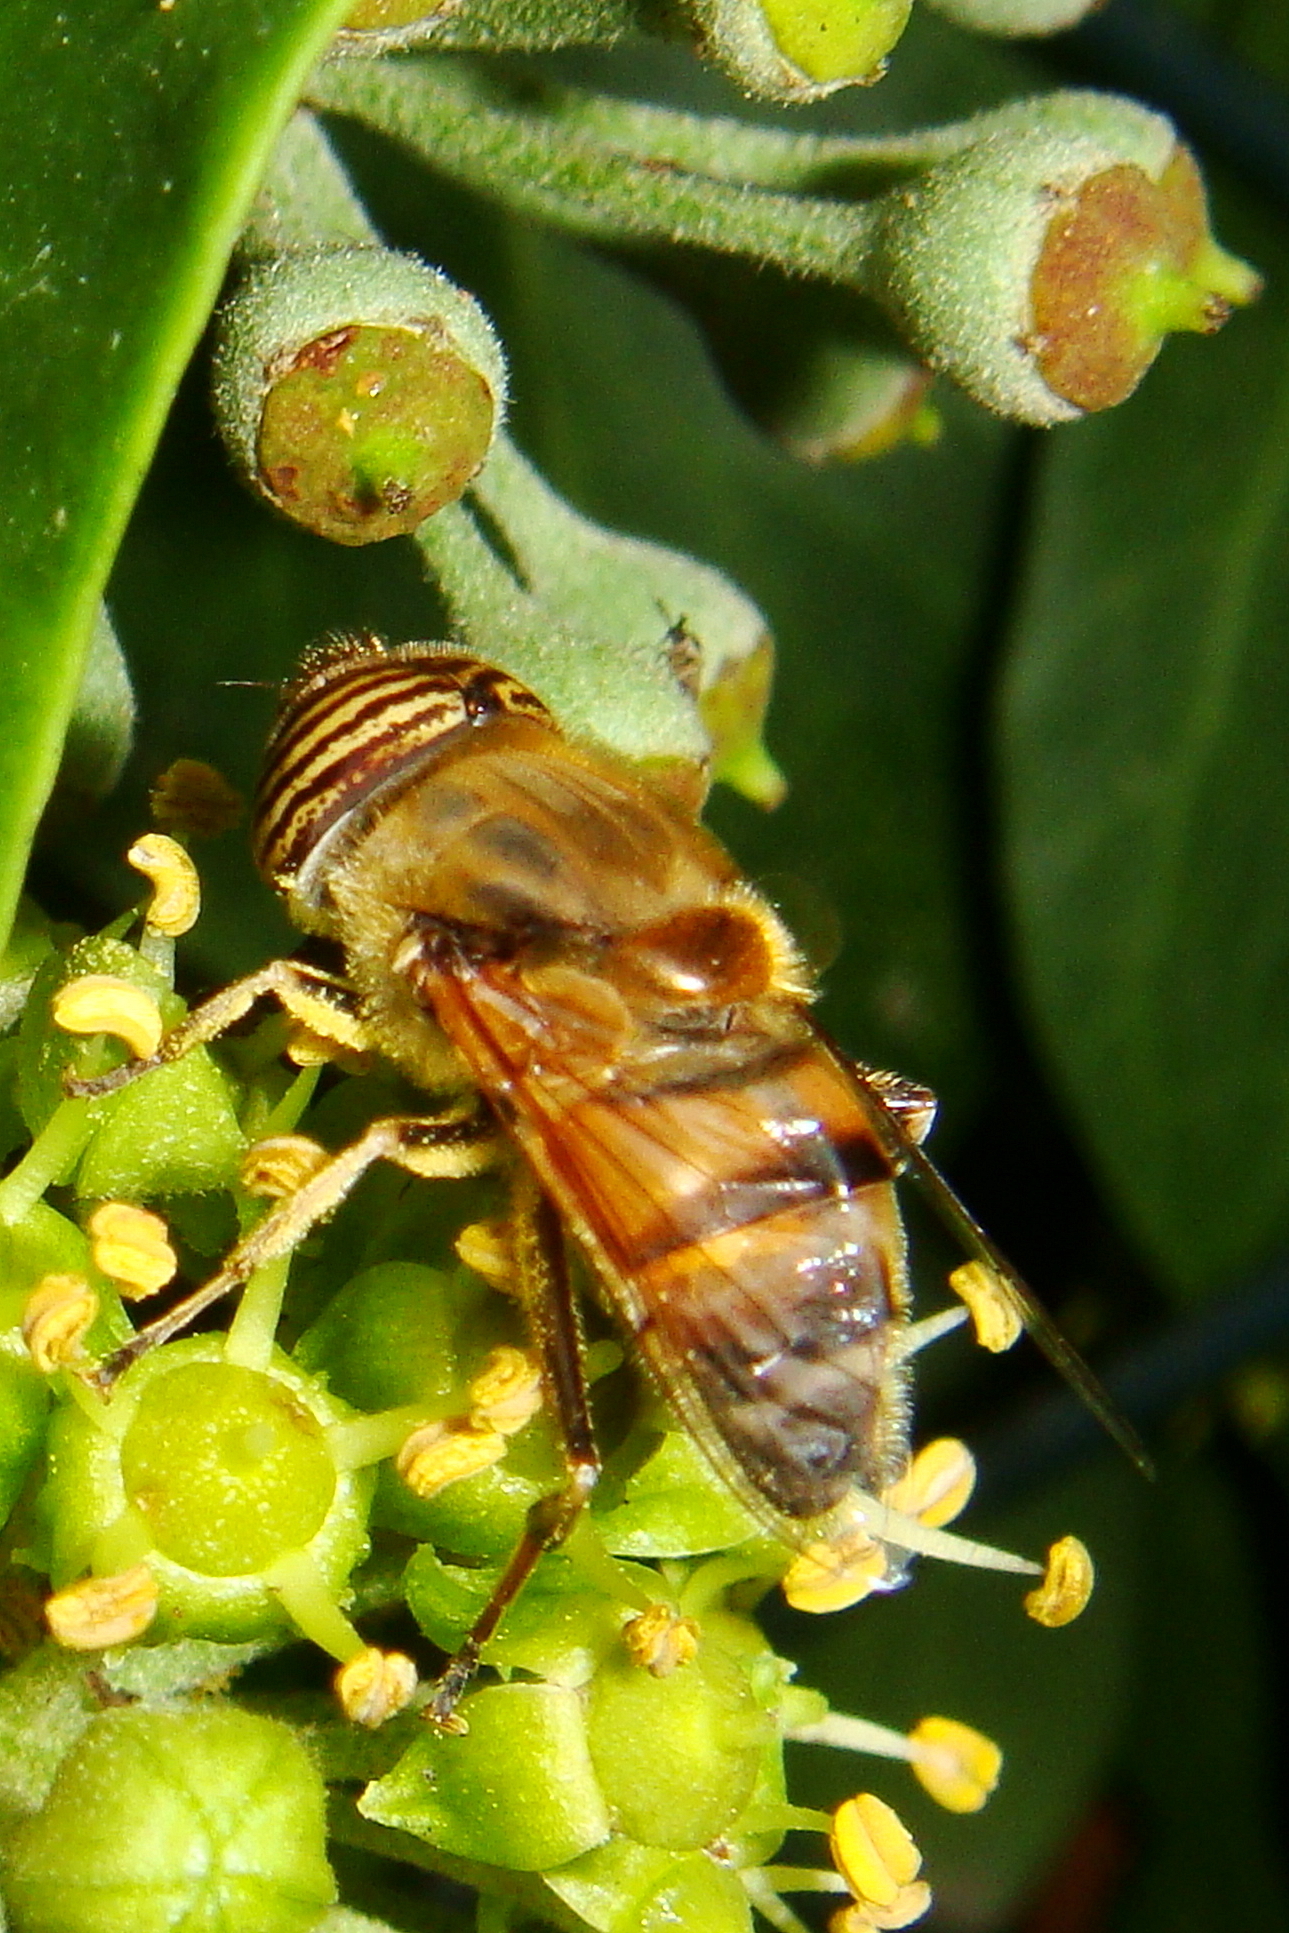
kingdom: Animalia
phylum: Arthropoda
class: Insecta
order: Diptera
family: Syrphidae
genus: Eristalinus
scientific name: Eristalinus taeniops
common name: Syrphid fly
